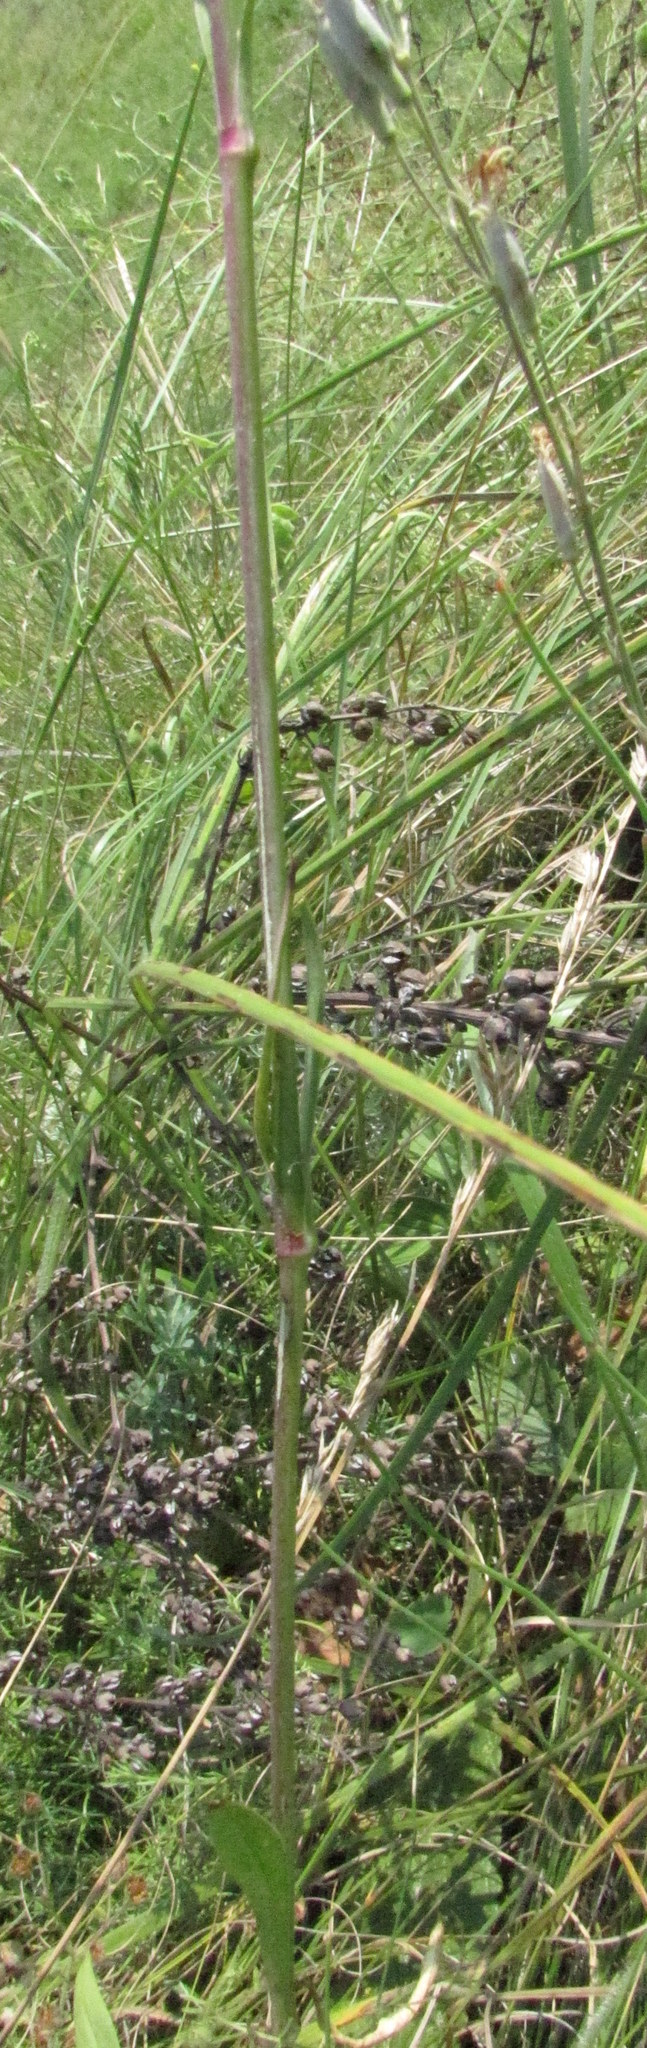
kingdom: Plantae
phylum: Tracheophyta
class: Magnoliopsida
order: Caryophyllales
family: Caryophyllaceae
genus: Silene
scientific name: Silene chlorantha
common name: Yellowgreen catchfly
